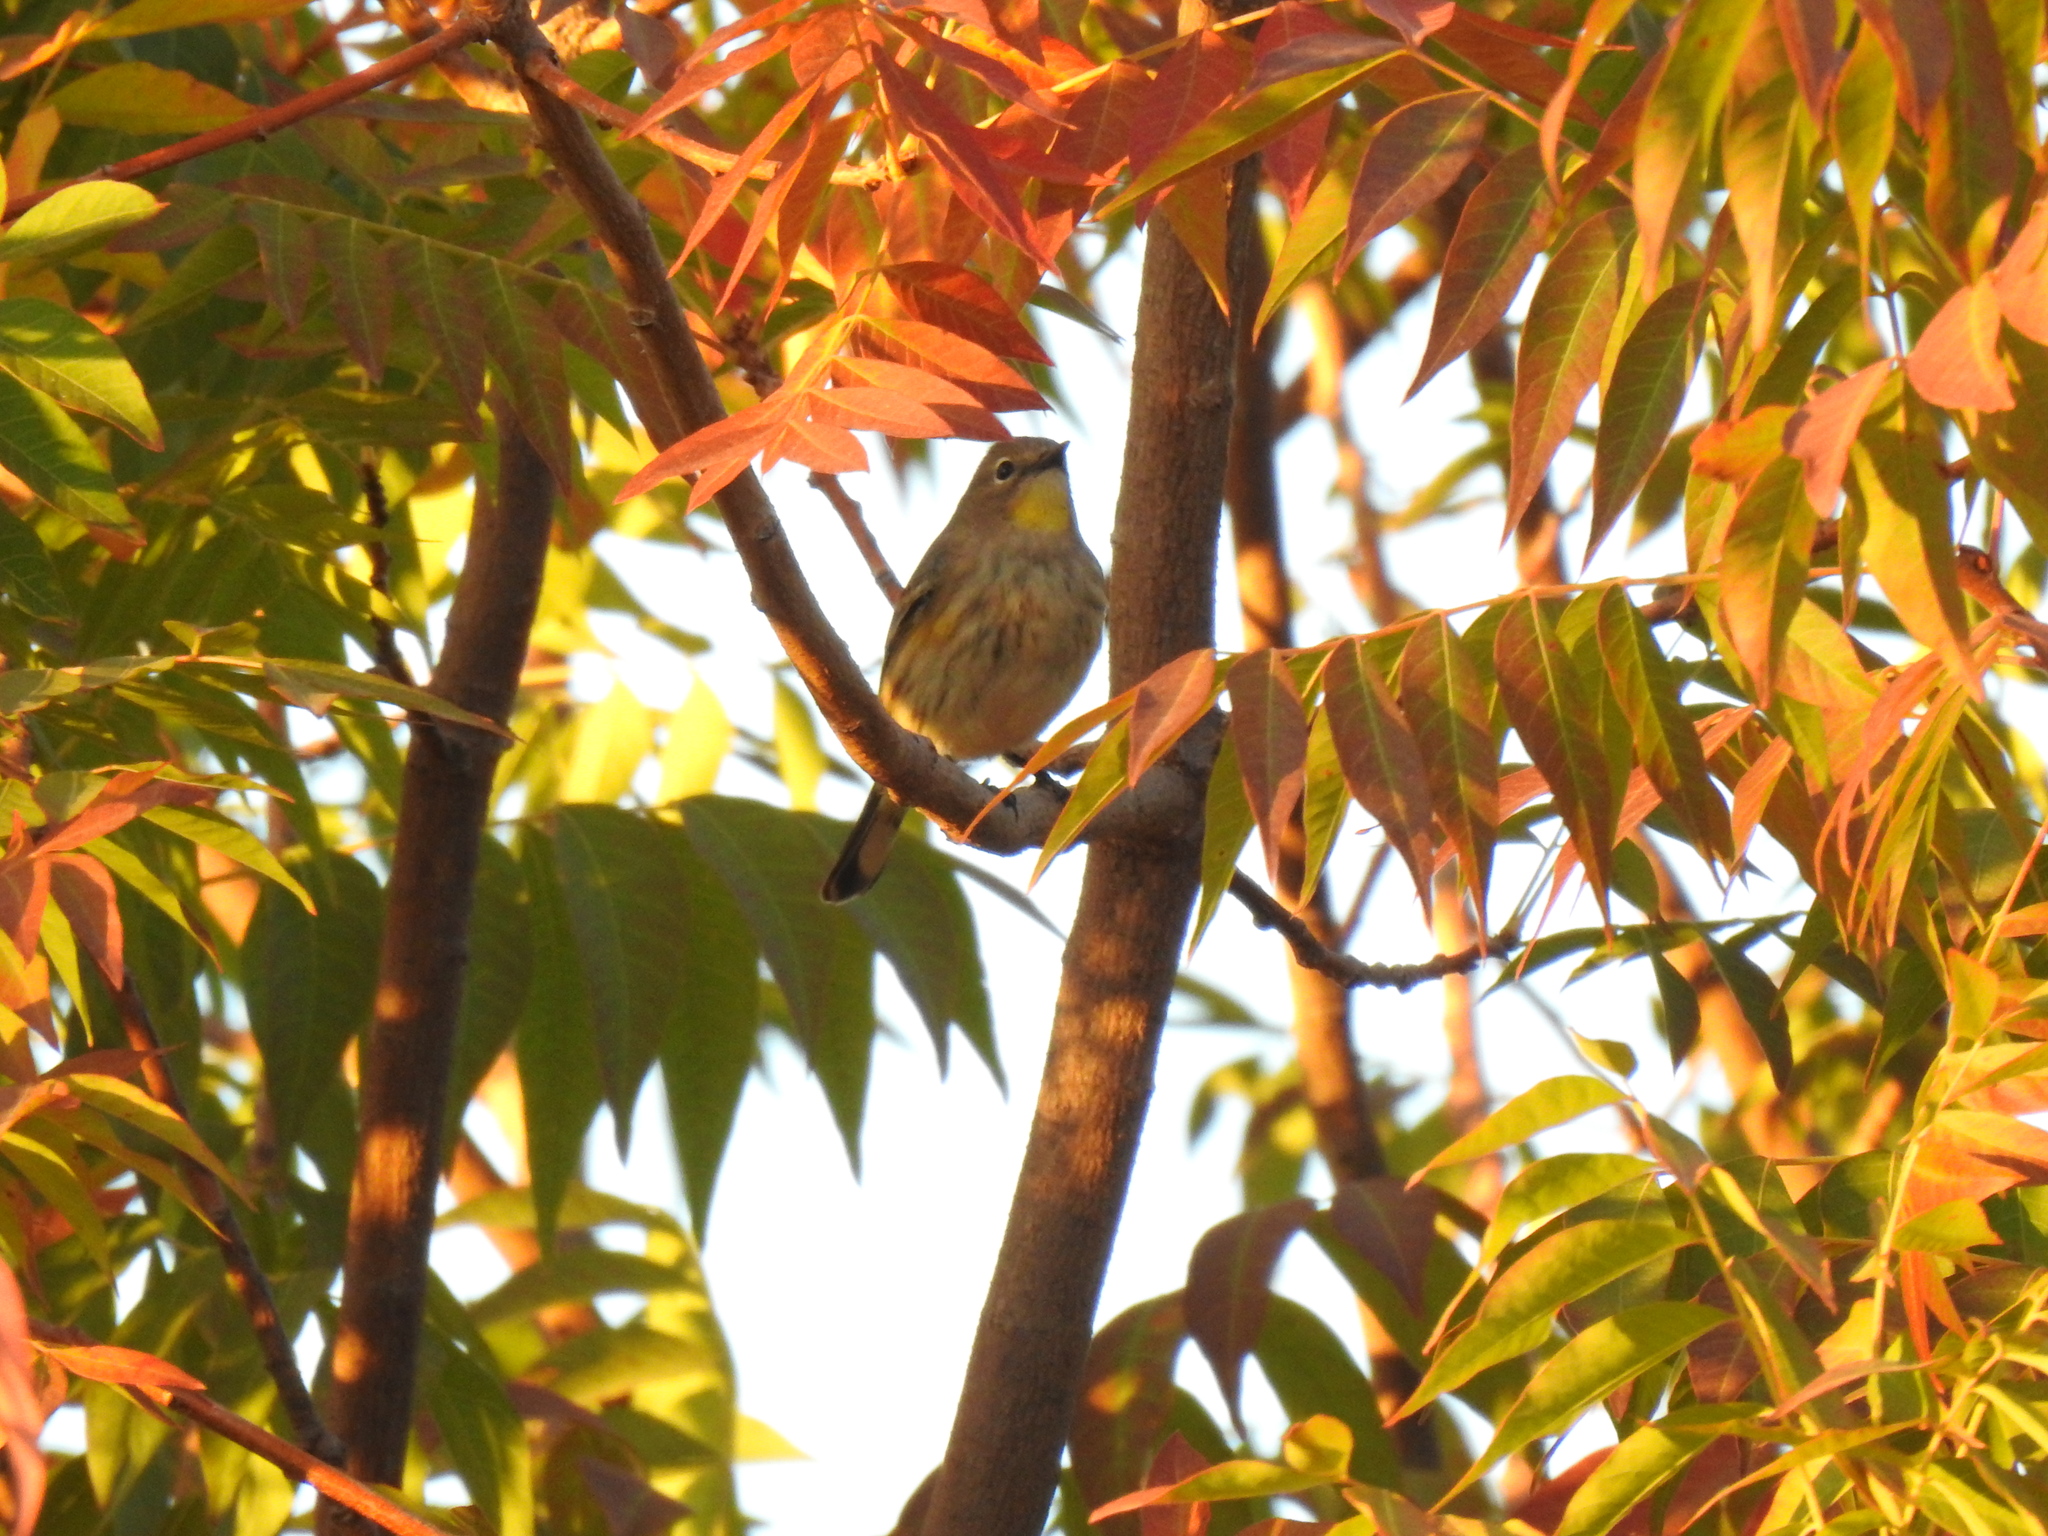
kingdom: Animalia
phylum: Chordata
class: Aves
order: Passeriformes
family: Parulidae
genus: Setophaga
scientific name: Setophaga coronata
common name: Myrtle warbler
